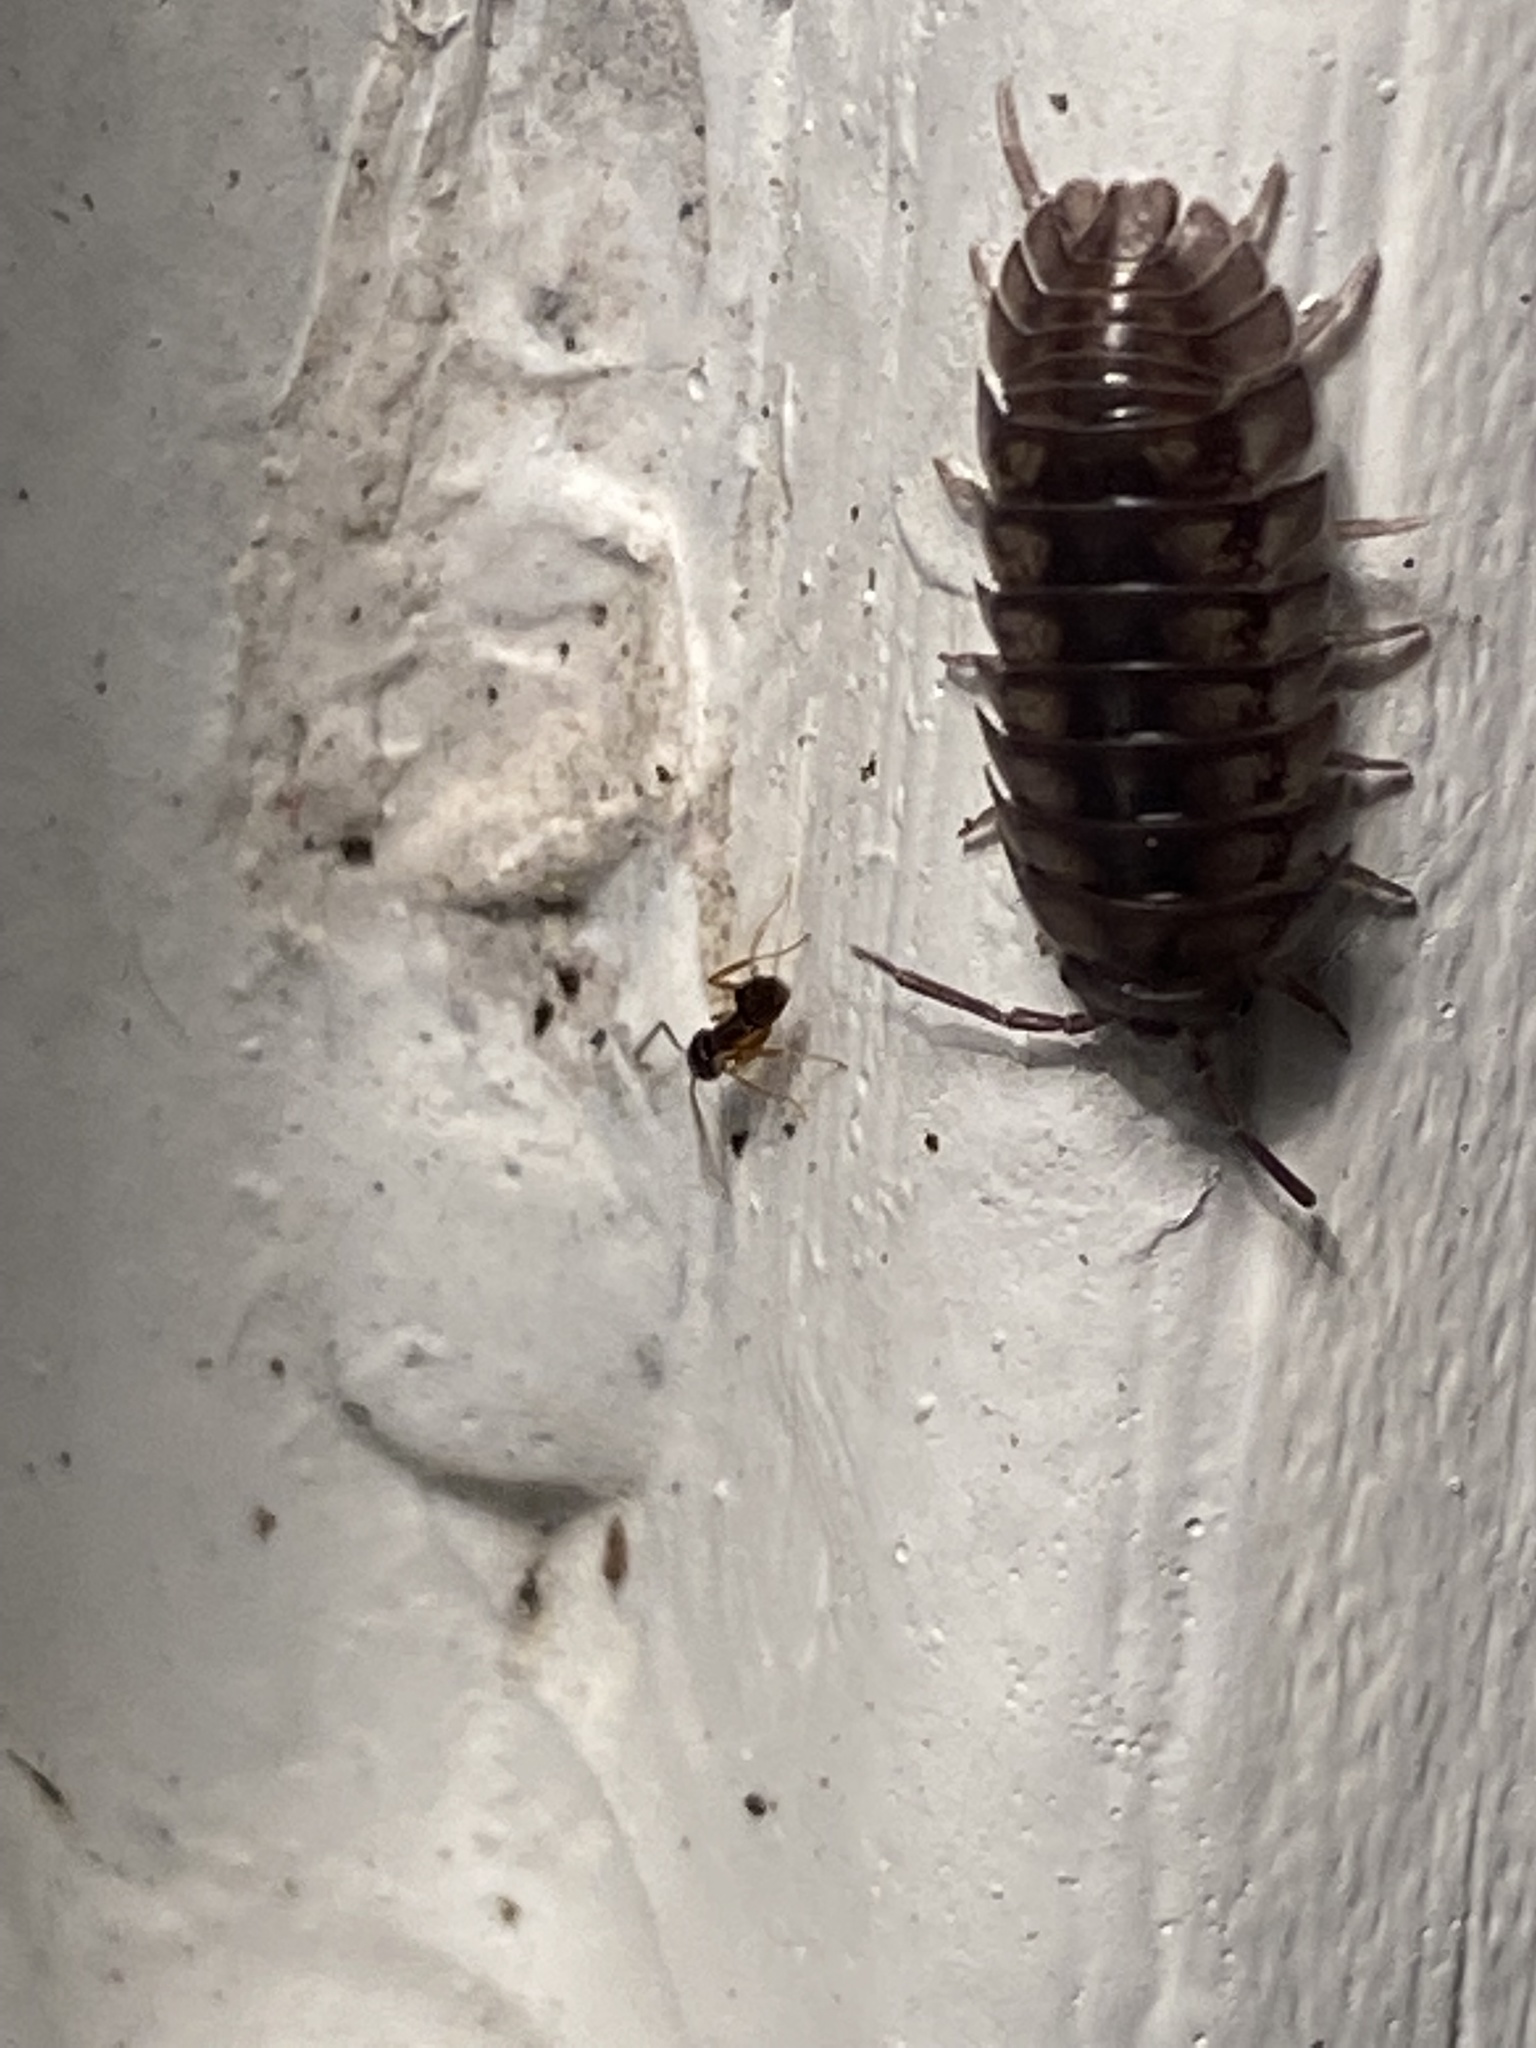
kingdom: Animalia
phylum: Arthropoda
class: Malacostraca
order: Isopoda
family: Armadillidiidae
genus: Armadillidium
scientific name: Armadillidium nasatum
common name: Isopod
